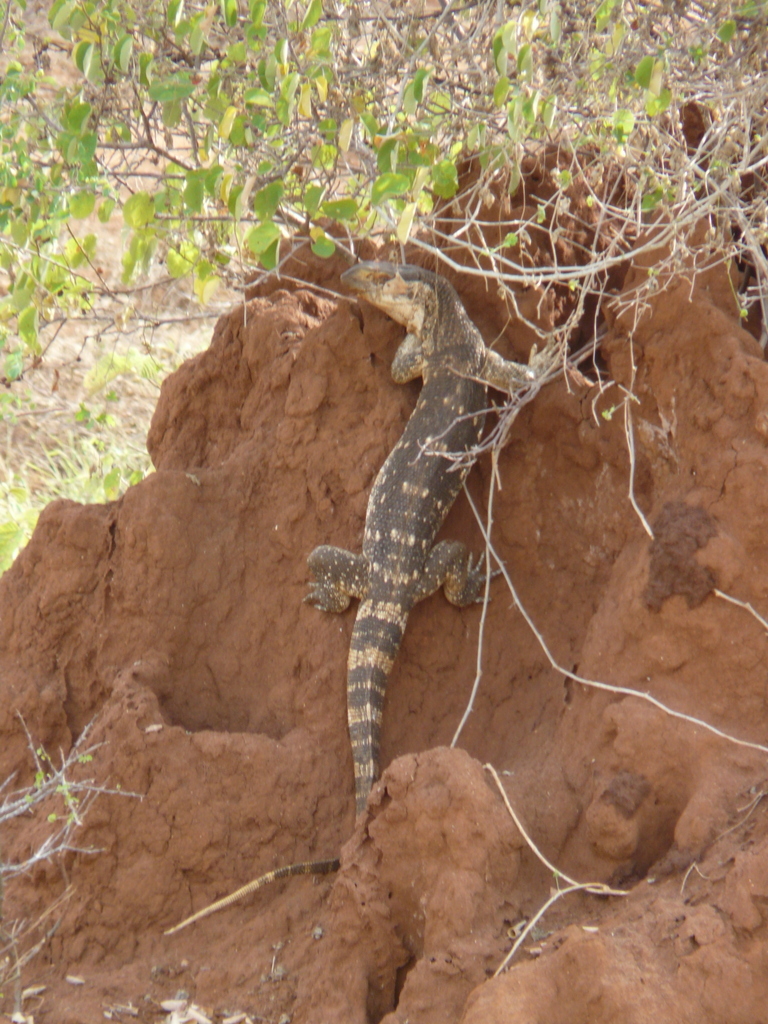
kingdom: Animalia
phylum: Chordata
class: Squamata
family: Varanidae
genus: Varanus
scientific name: Varanus albigularis
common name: White-throated monitor
